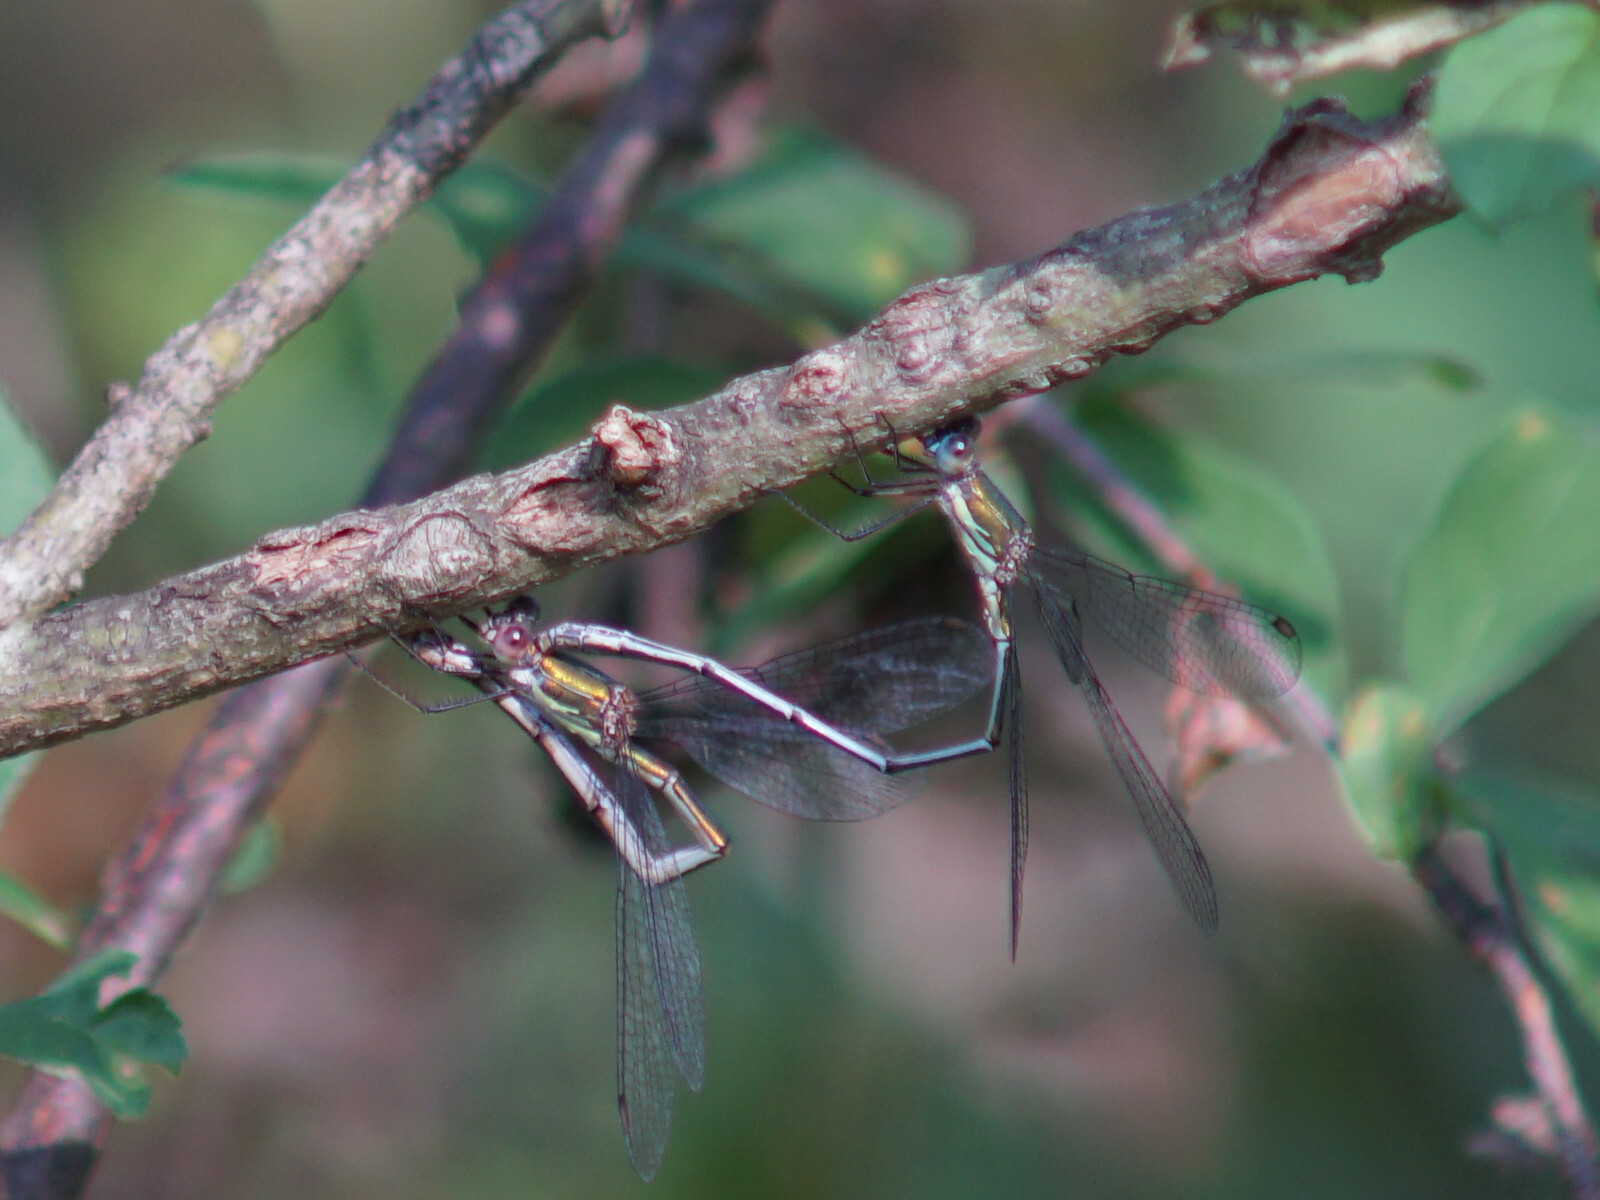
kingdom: Animalia
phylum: Arthropoda
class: Insecta
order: Odonata
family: Lestidae
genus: Chalcolestes
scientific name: Chalcolestes viridis
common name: Green emerald damselfly
